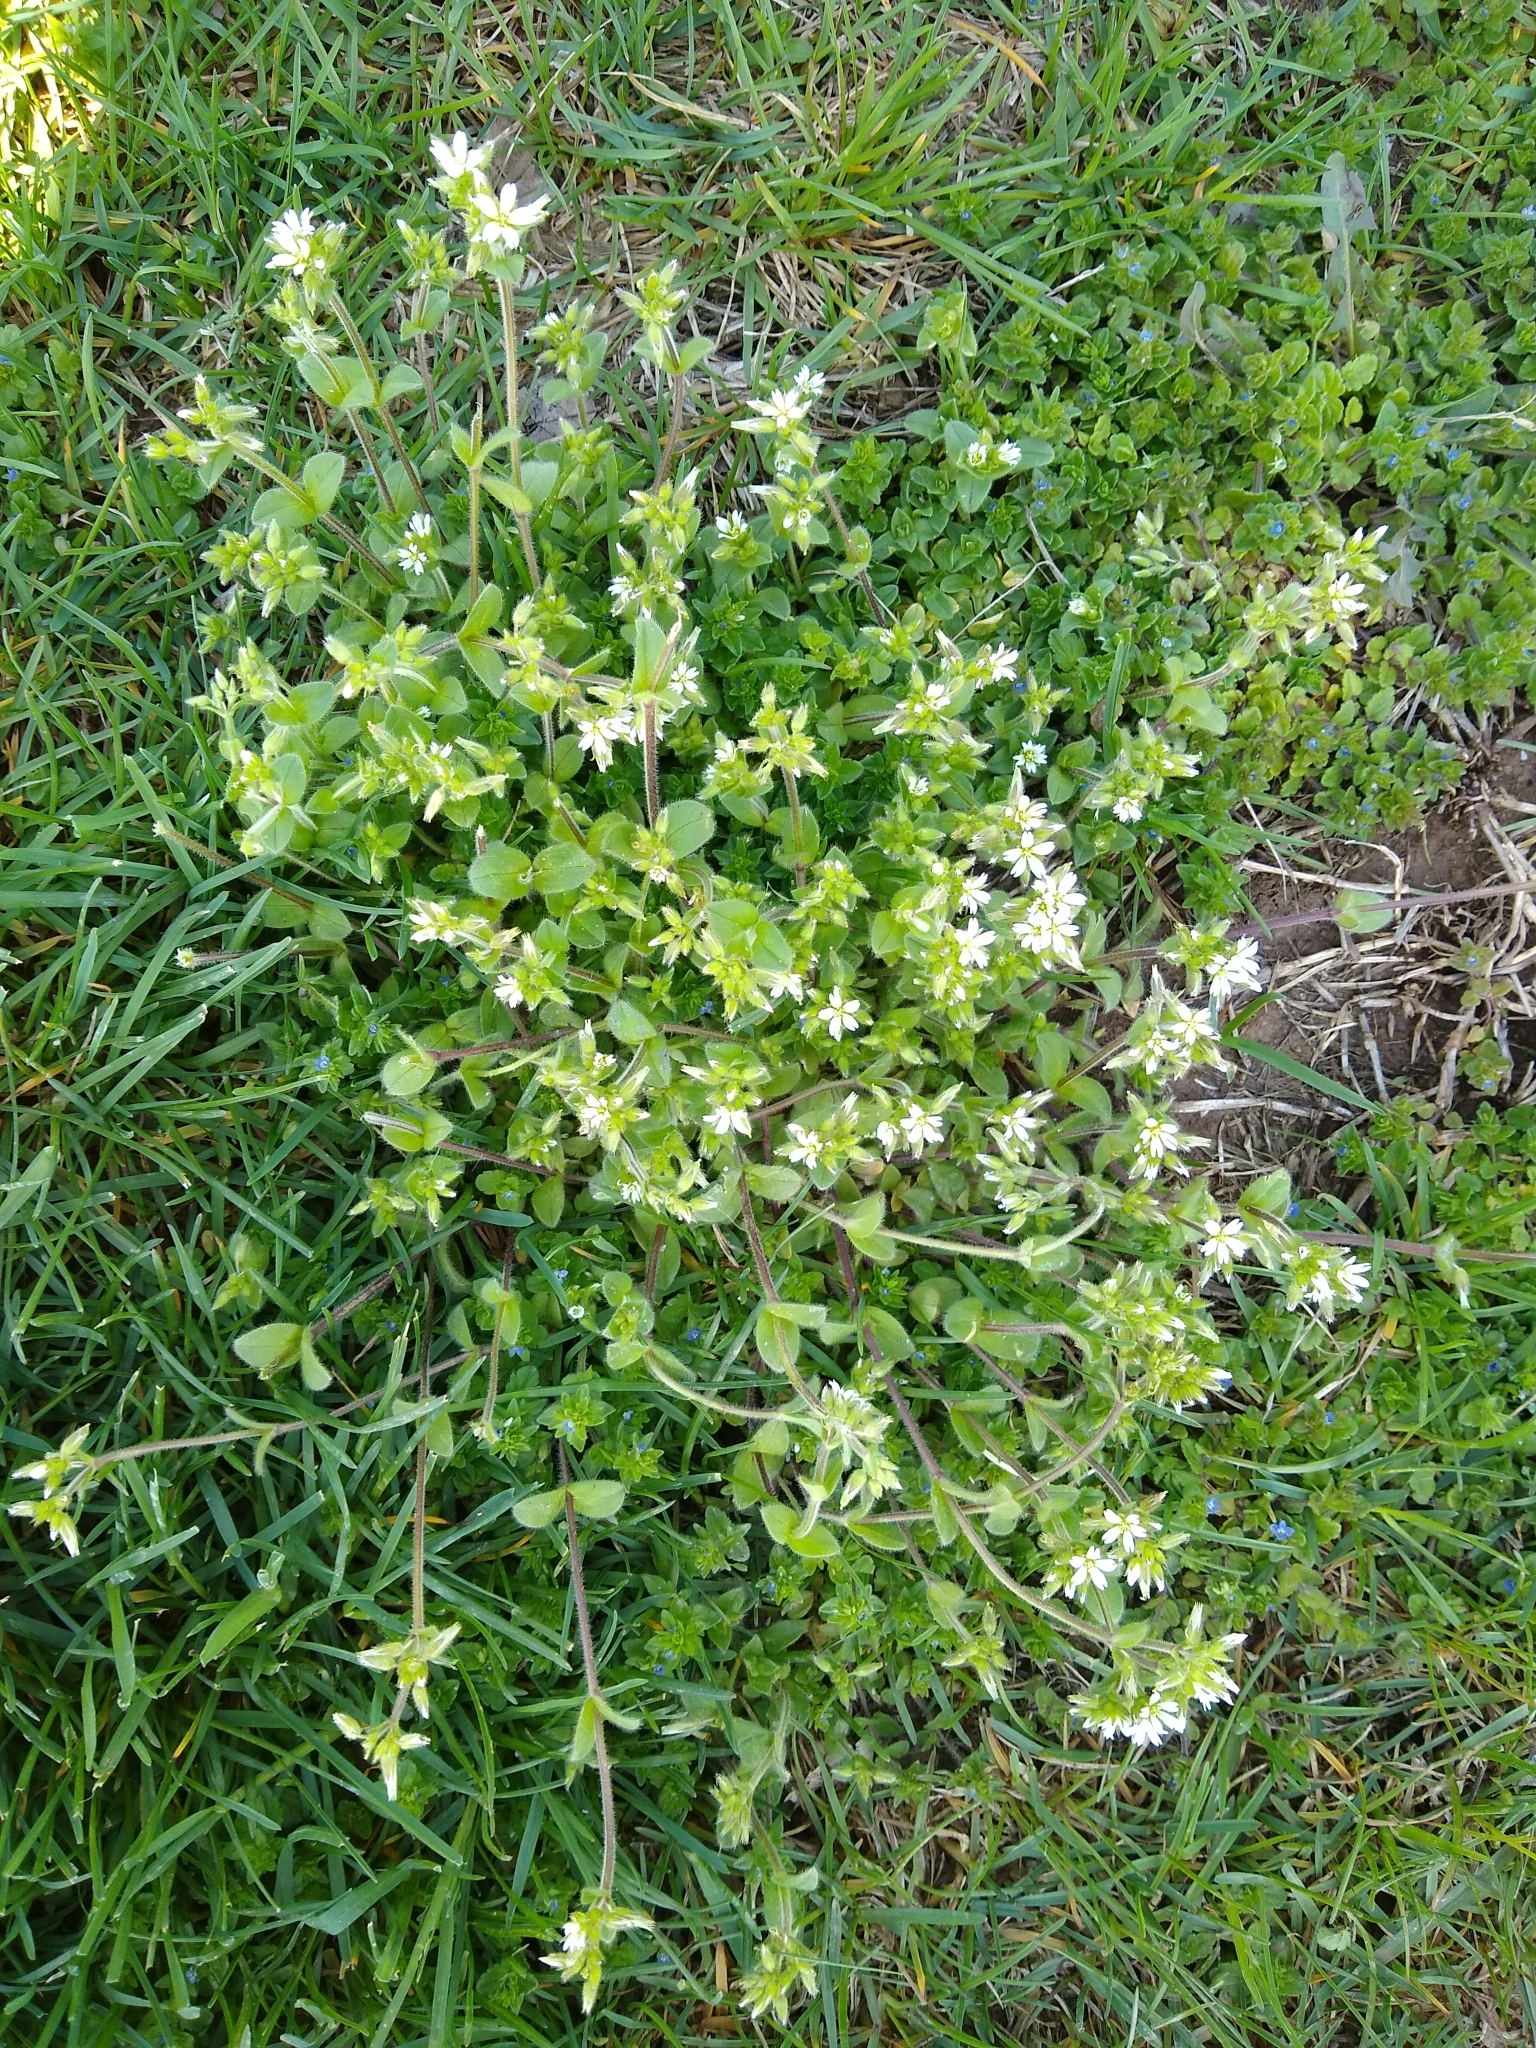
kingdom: Plantae
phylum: Tracheophyta
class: Magnoliopsida
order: Caryophyllales
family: Caryophyllaceae
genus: Cerastium
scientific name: Cerastium glomeratum
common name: Sticky chickweed
